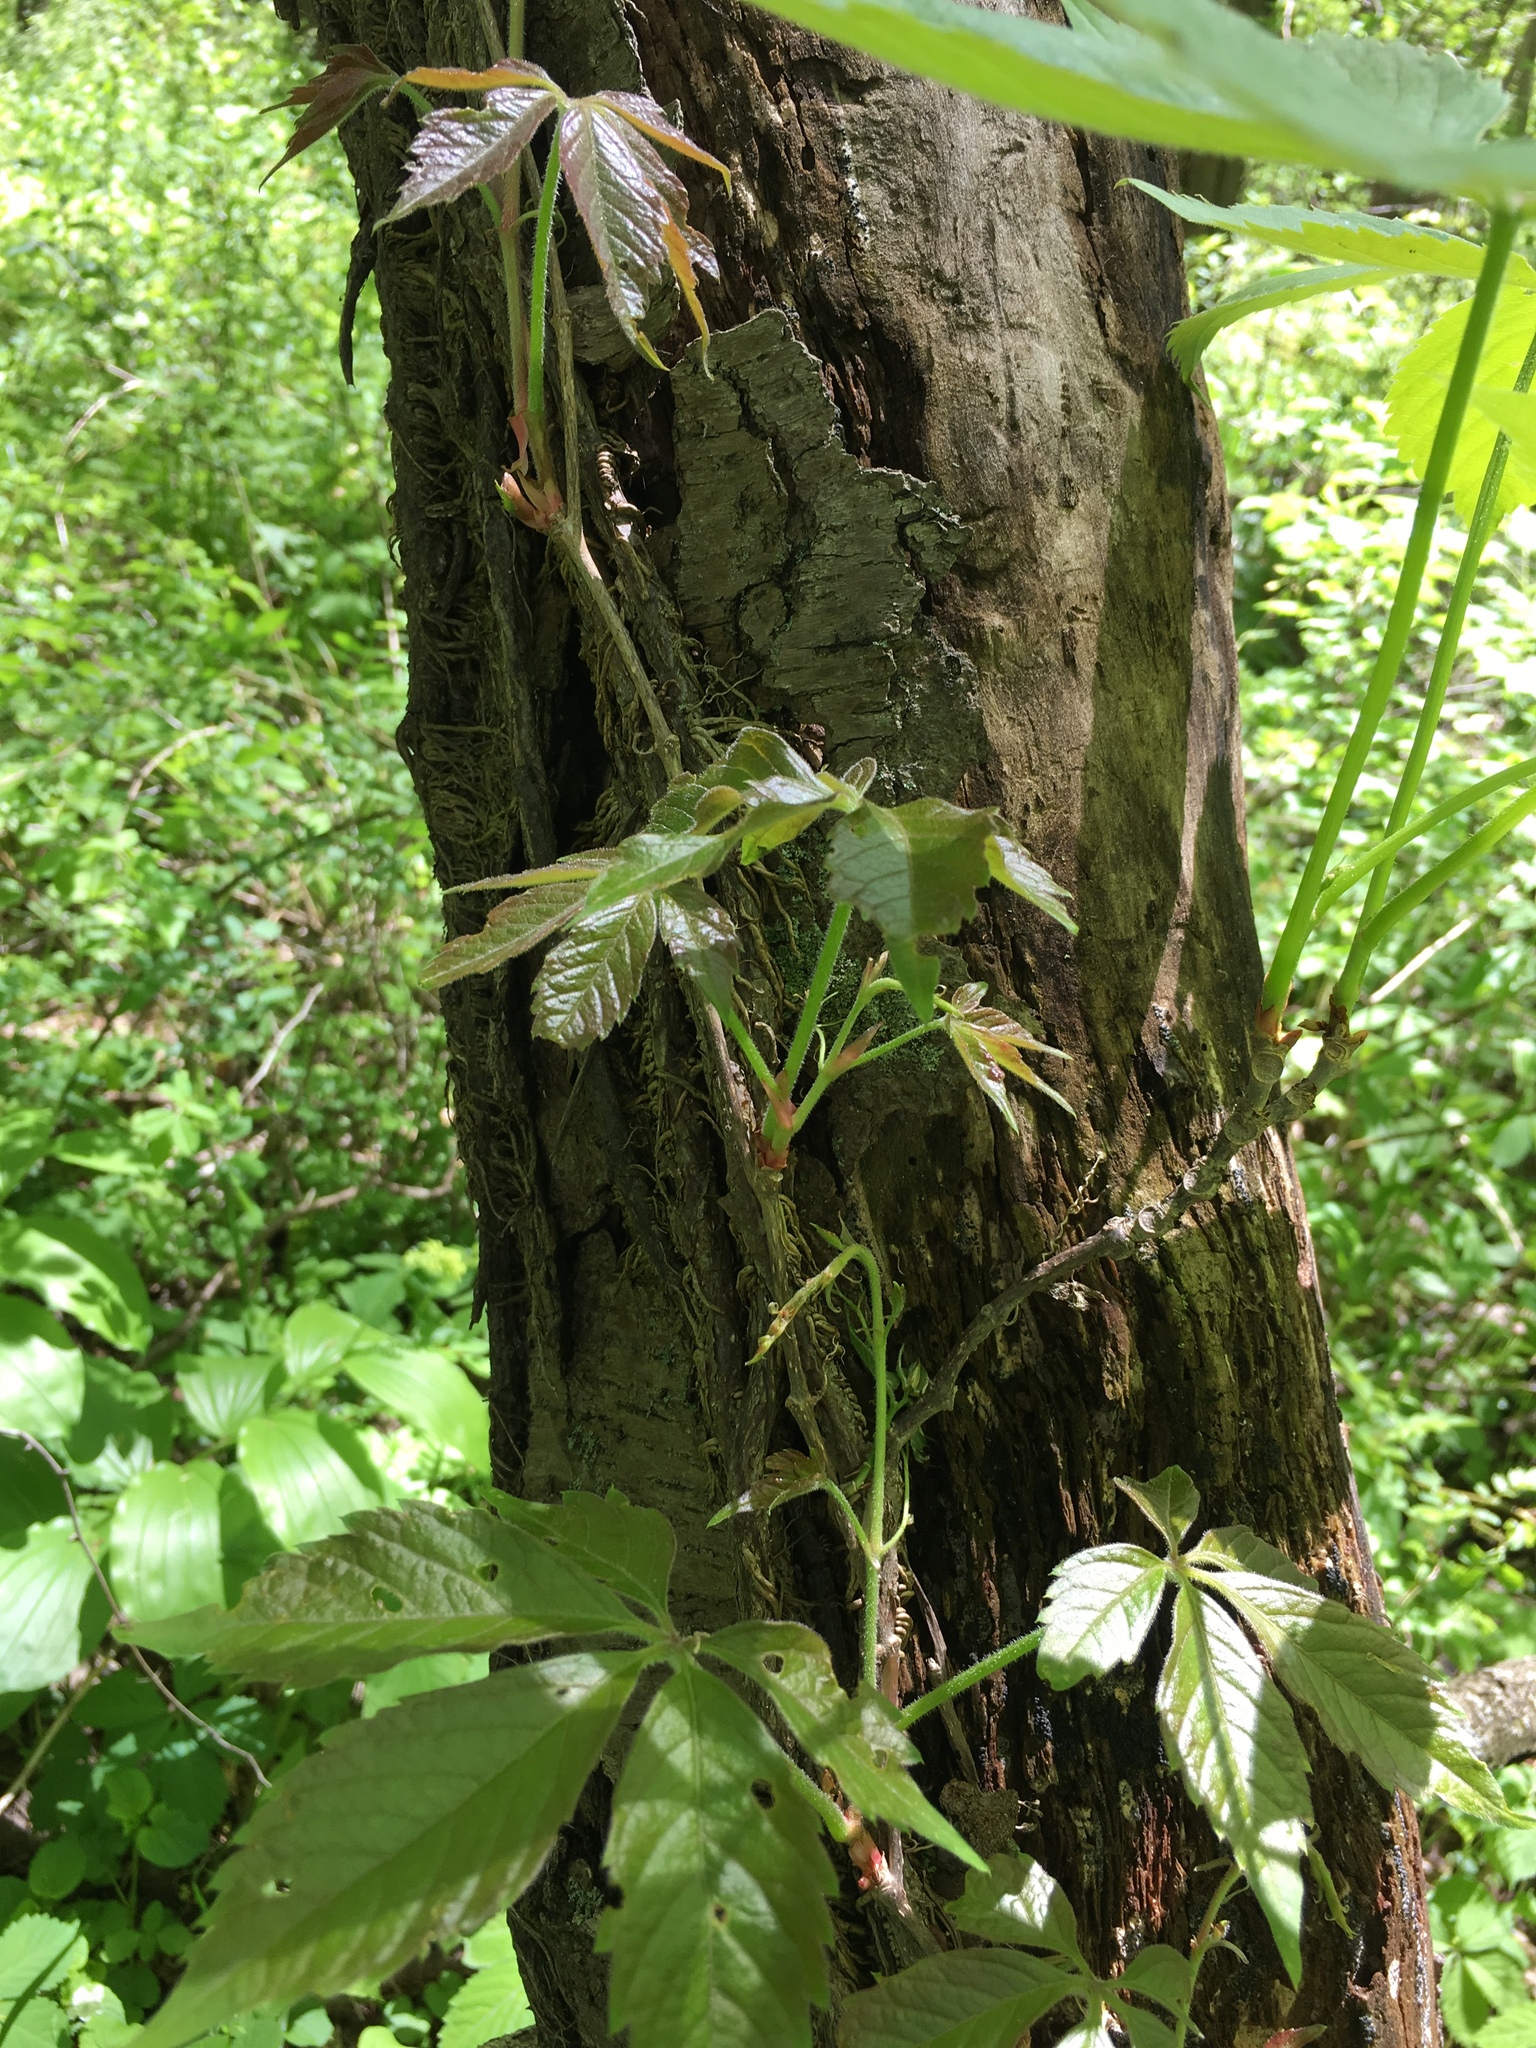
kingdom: Plantae
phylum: Tracheophyta
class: Magnoliopsida
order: Vitales
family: Vitaceae
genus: Parthenocissus
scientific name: Parthenocissus quinquefolia
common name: Virginia-creeper
